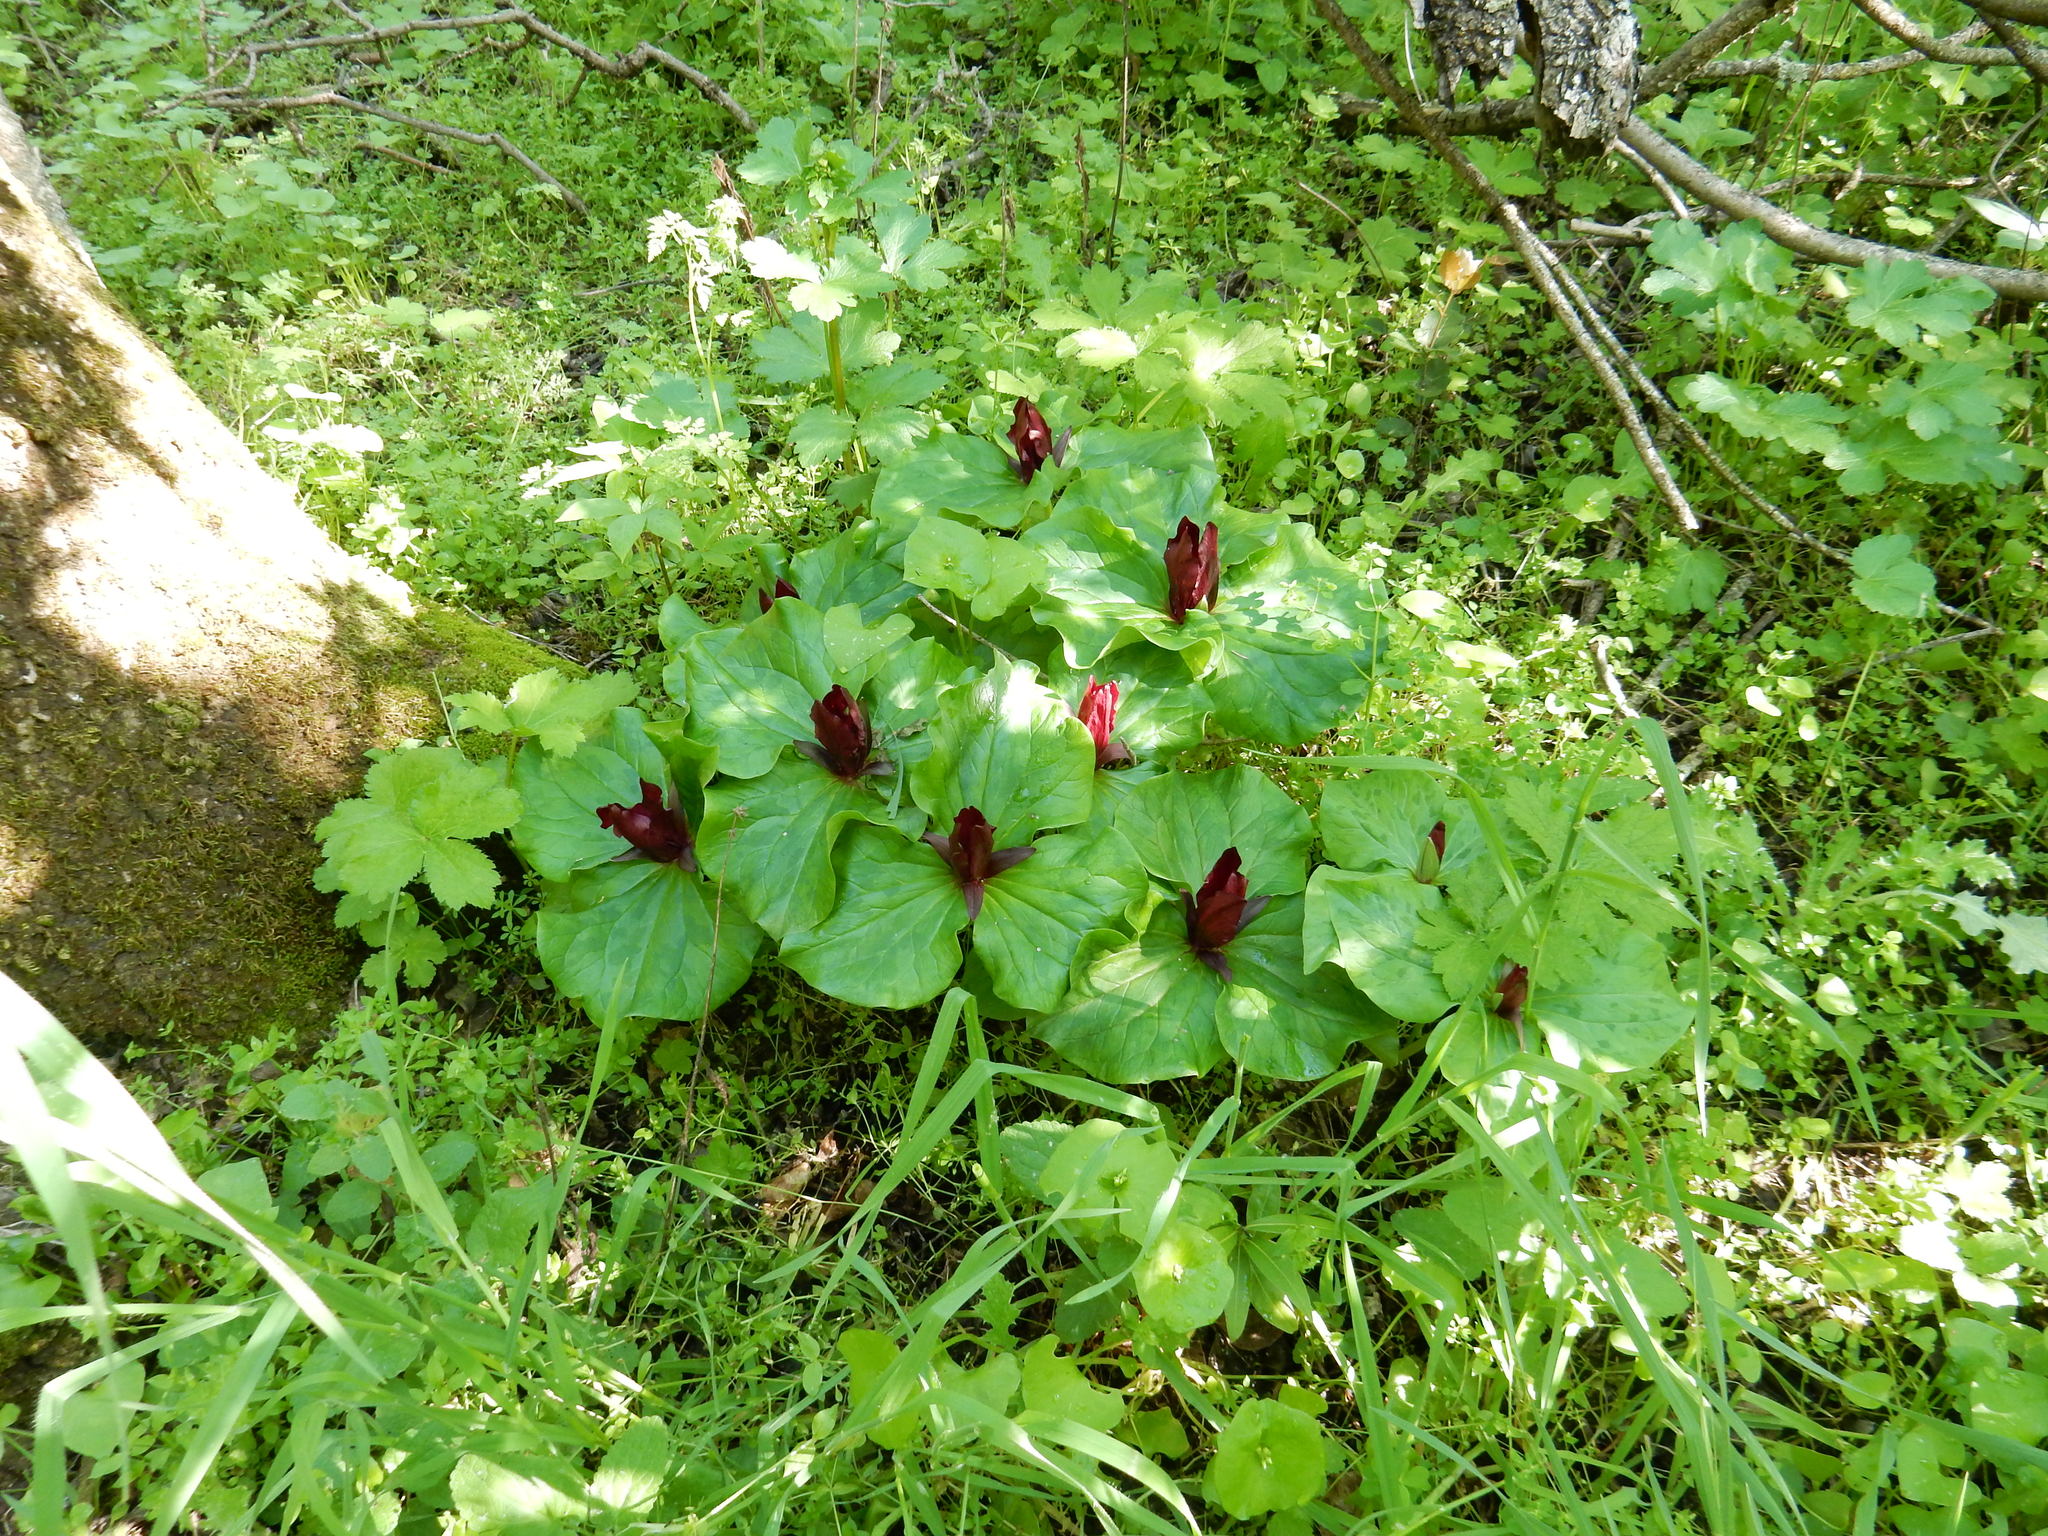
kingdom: Plantae
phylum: Tracheophyta
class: Liliopsida
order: Liliales
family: Melanthiaceae
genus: Trillium
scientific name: Trillium chloropetalum
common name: Giant trillium
